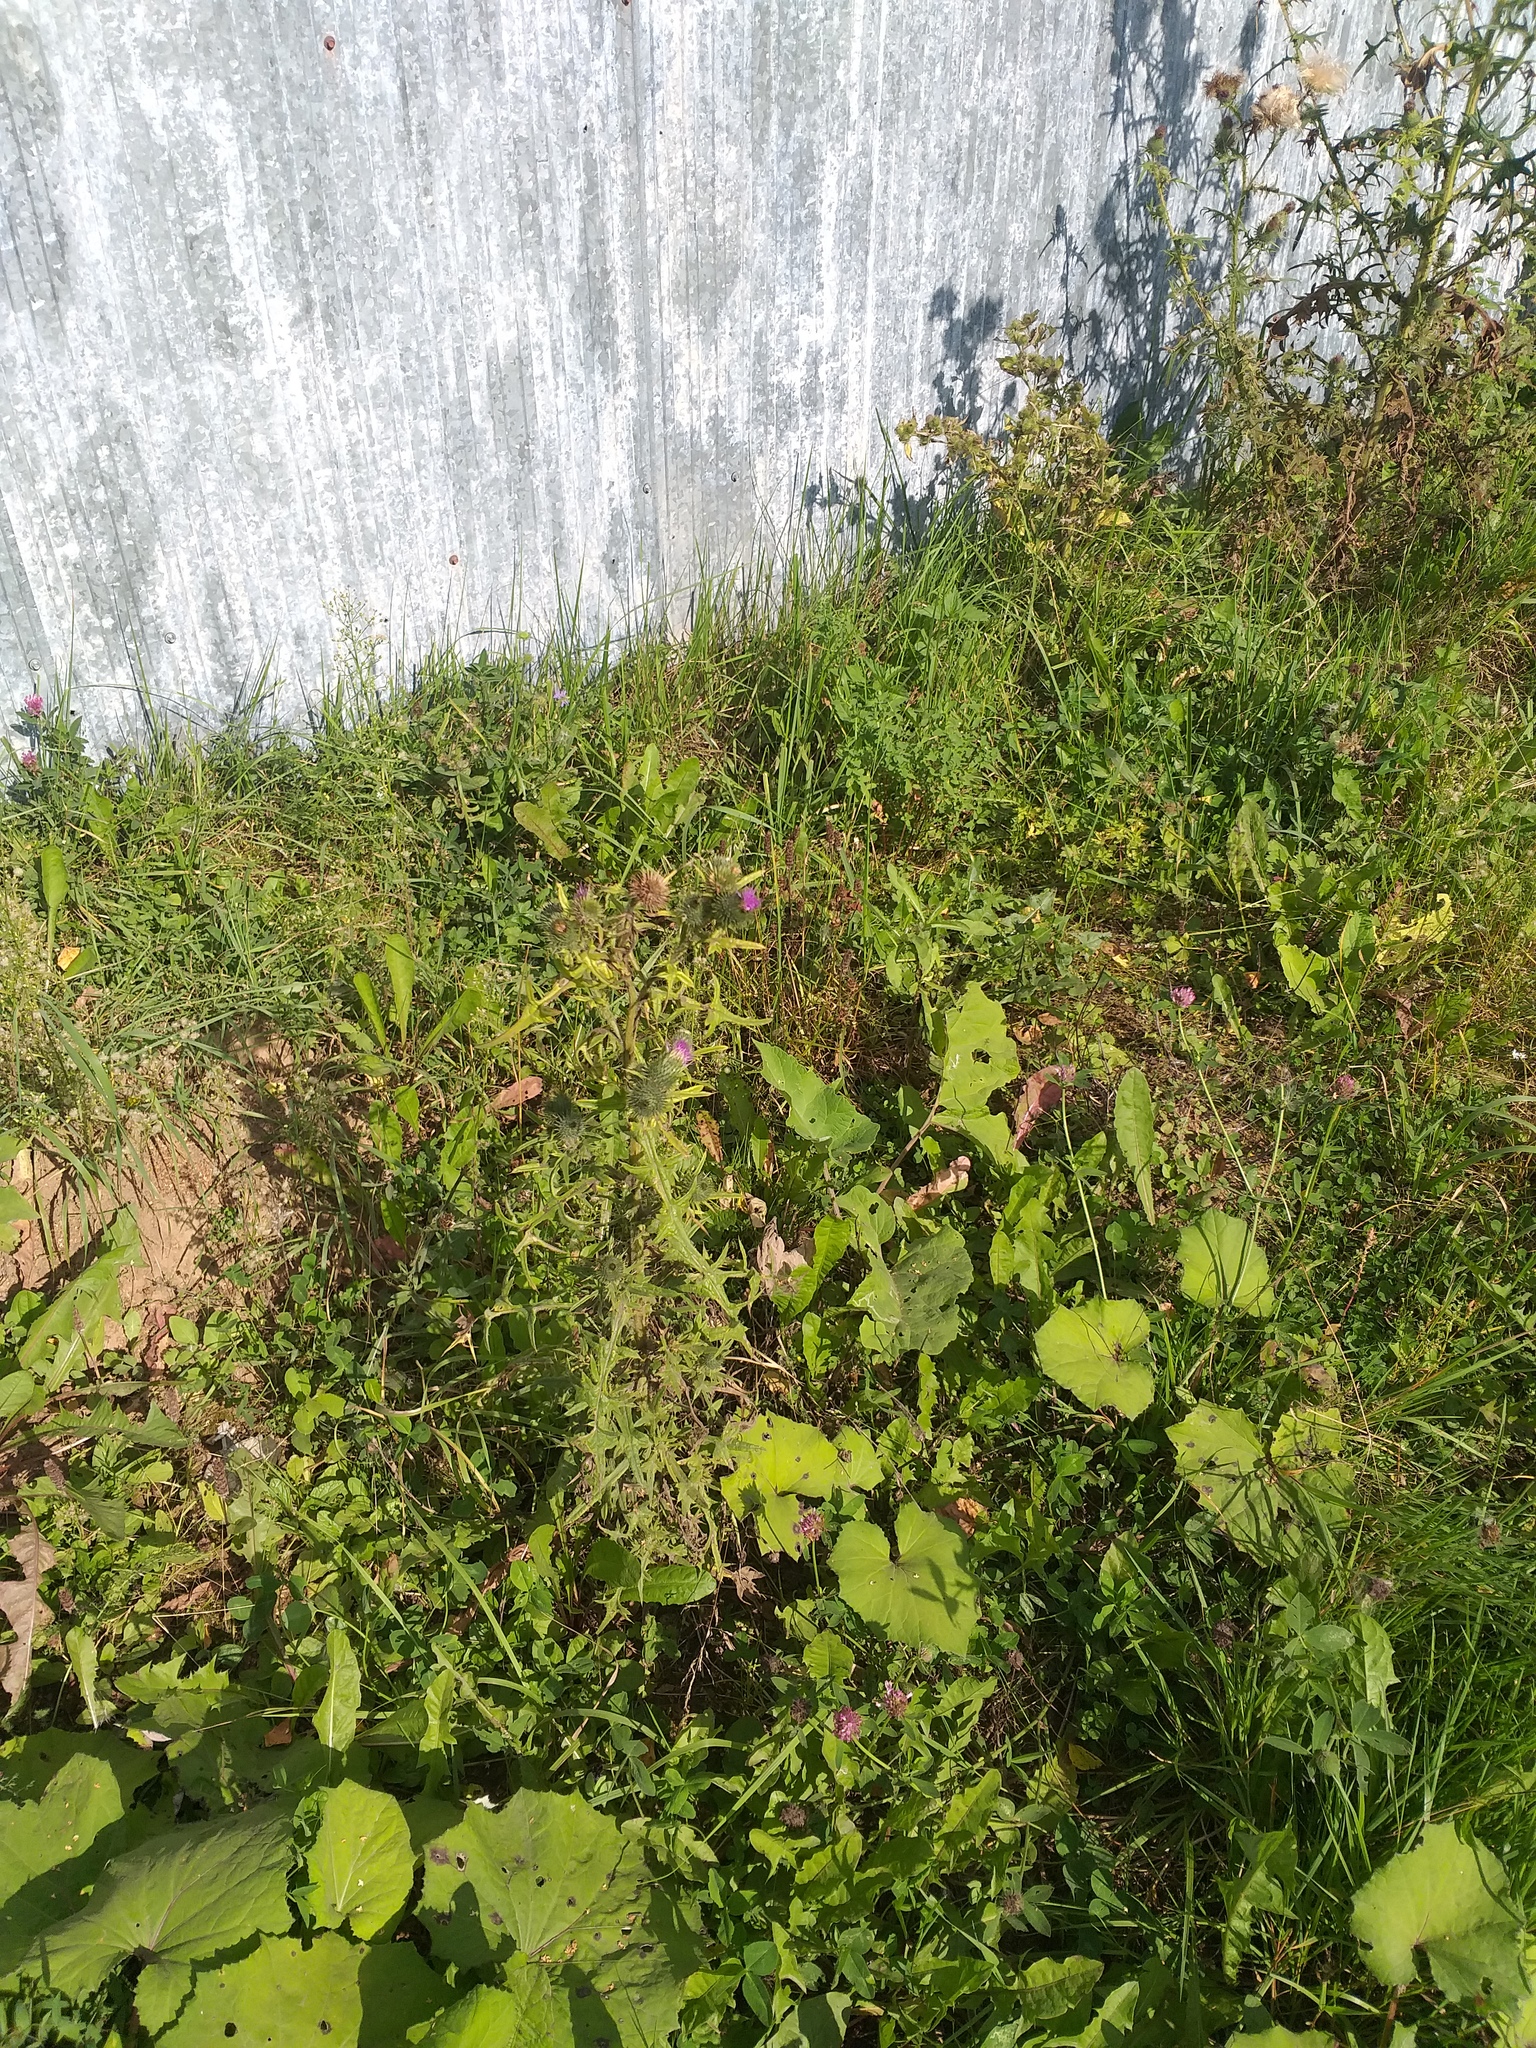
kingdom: Plantae
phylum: Tracheophyta
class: Magnoliopsida
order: Asterales
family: Asteraceae
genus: Cirsium
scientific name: Cirsium vulgare
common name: Bull thistle
